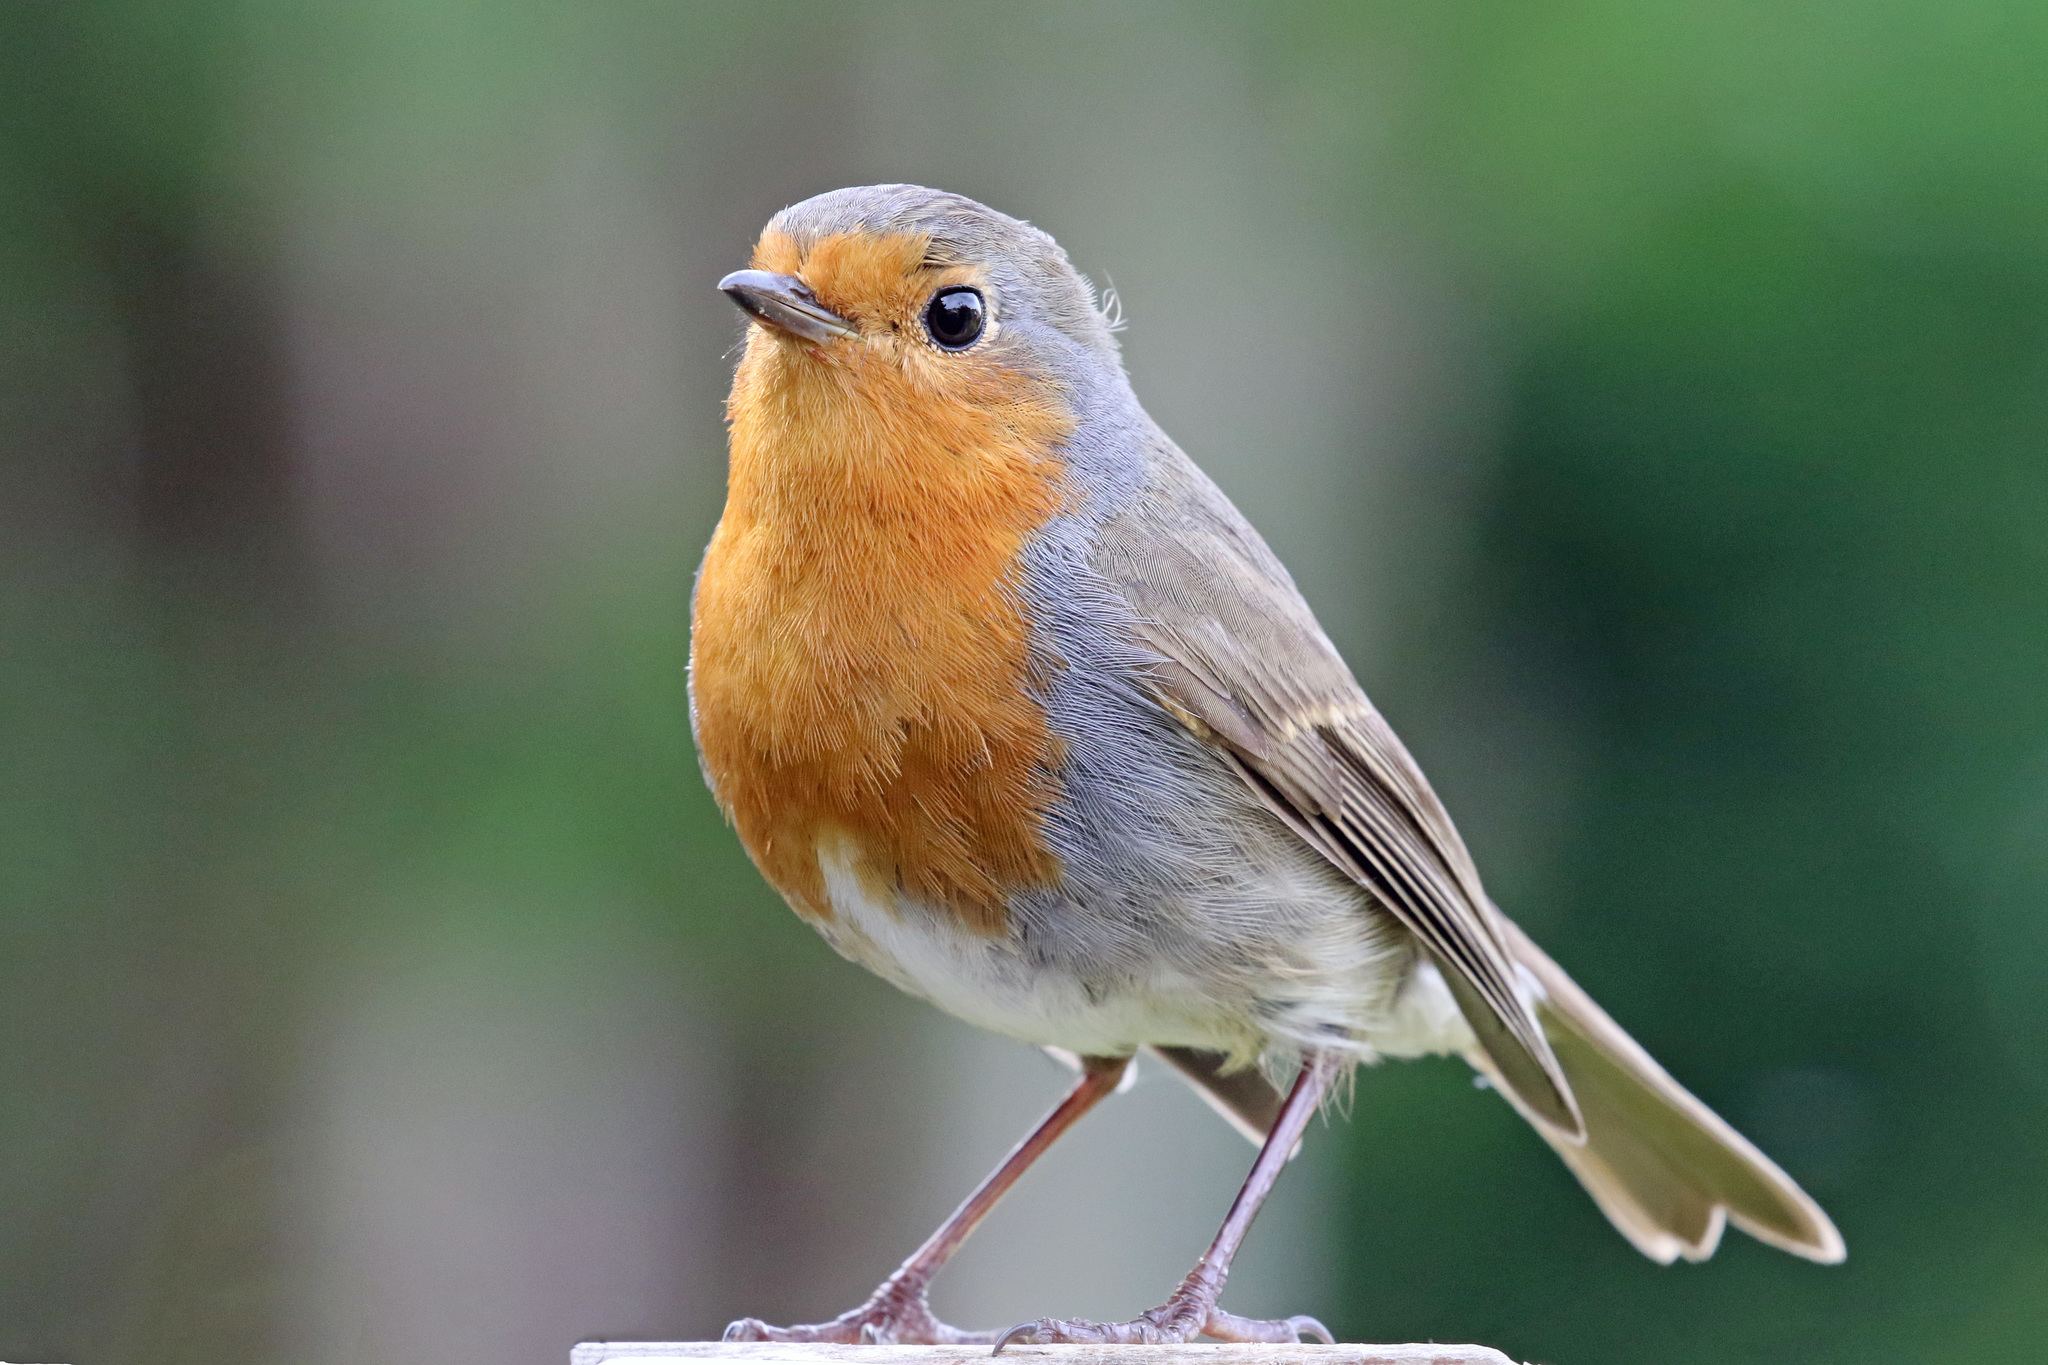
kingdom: Animalia
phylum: Chordata
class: Aves
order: Passeriformes
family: Muscicapidae
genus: Erithacus
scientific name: Erithacus rubecula
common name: European robin
